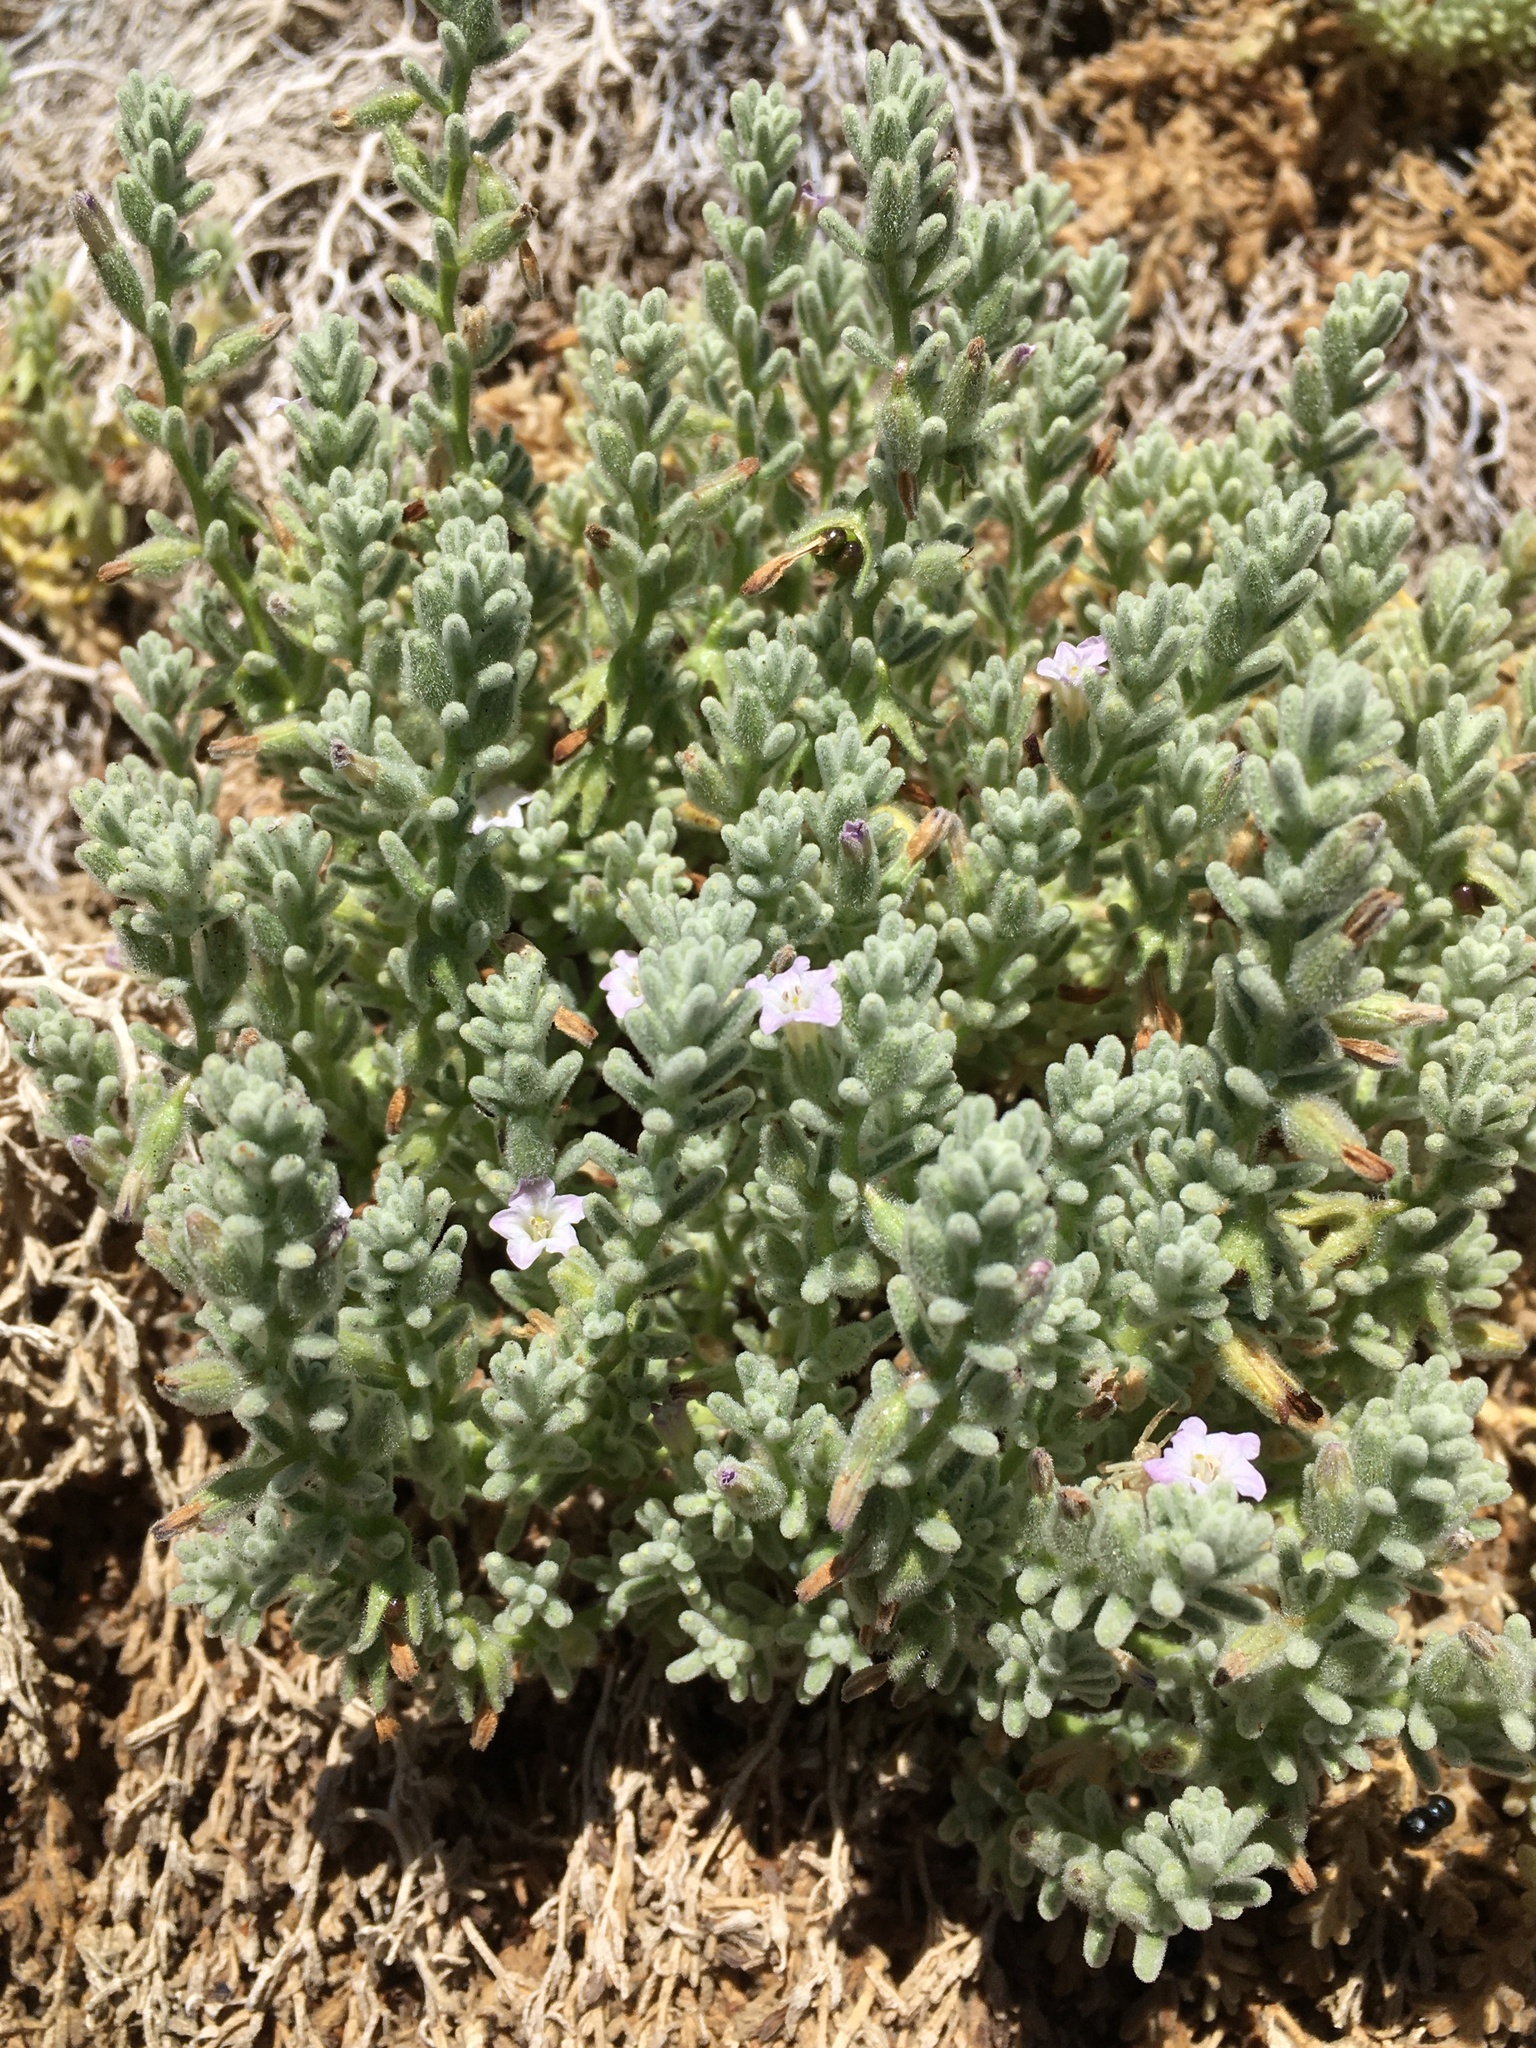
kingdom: Plantae
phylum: Tracheophyta
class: Magnoliopsida
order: Solanales
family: Solanaceae
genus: Nolana
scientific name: Nolana villosa
